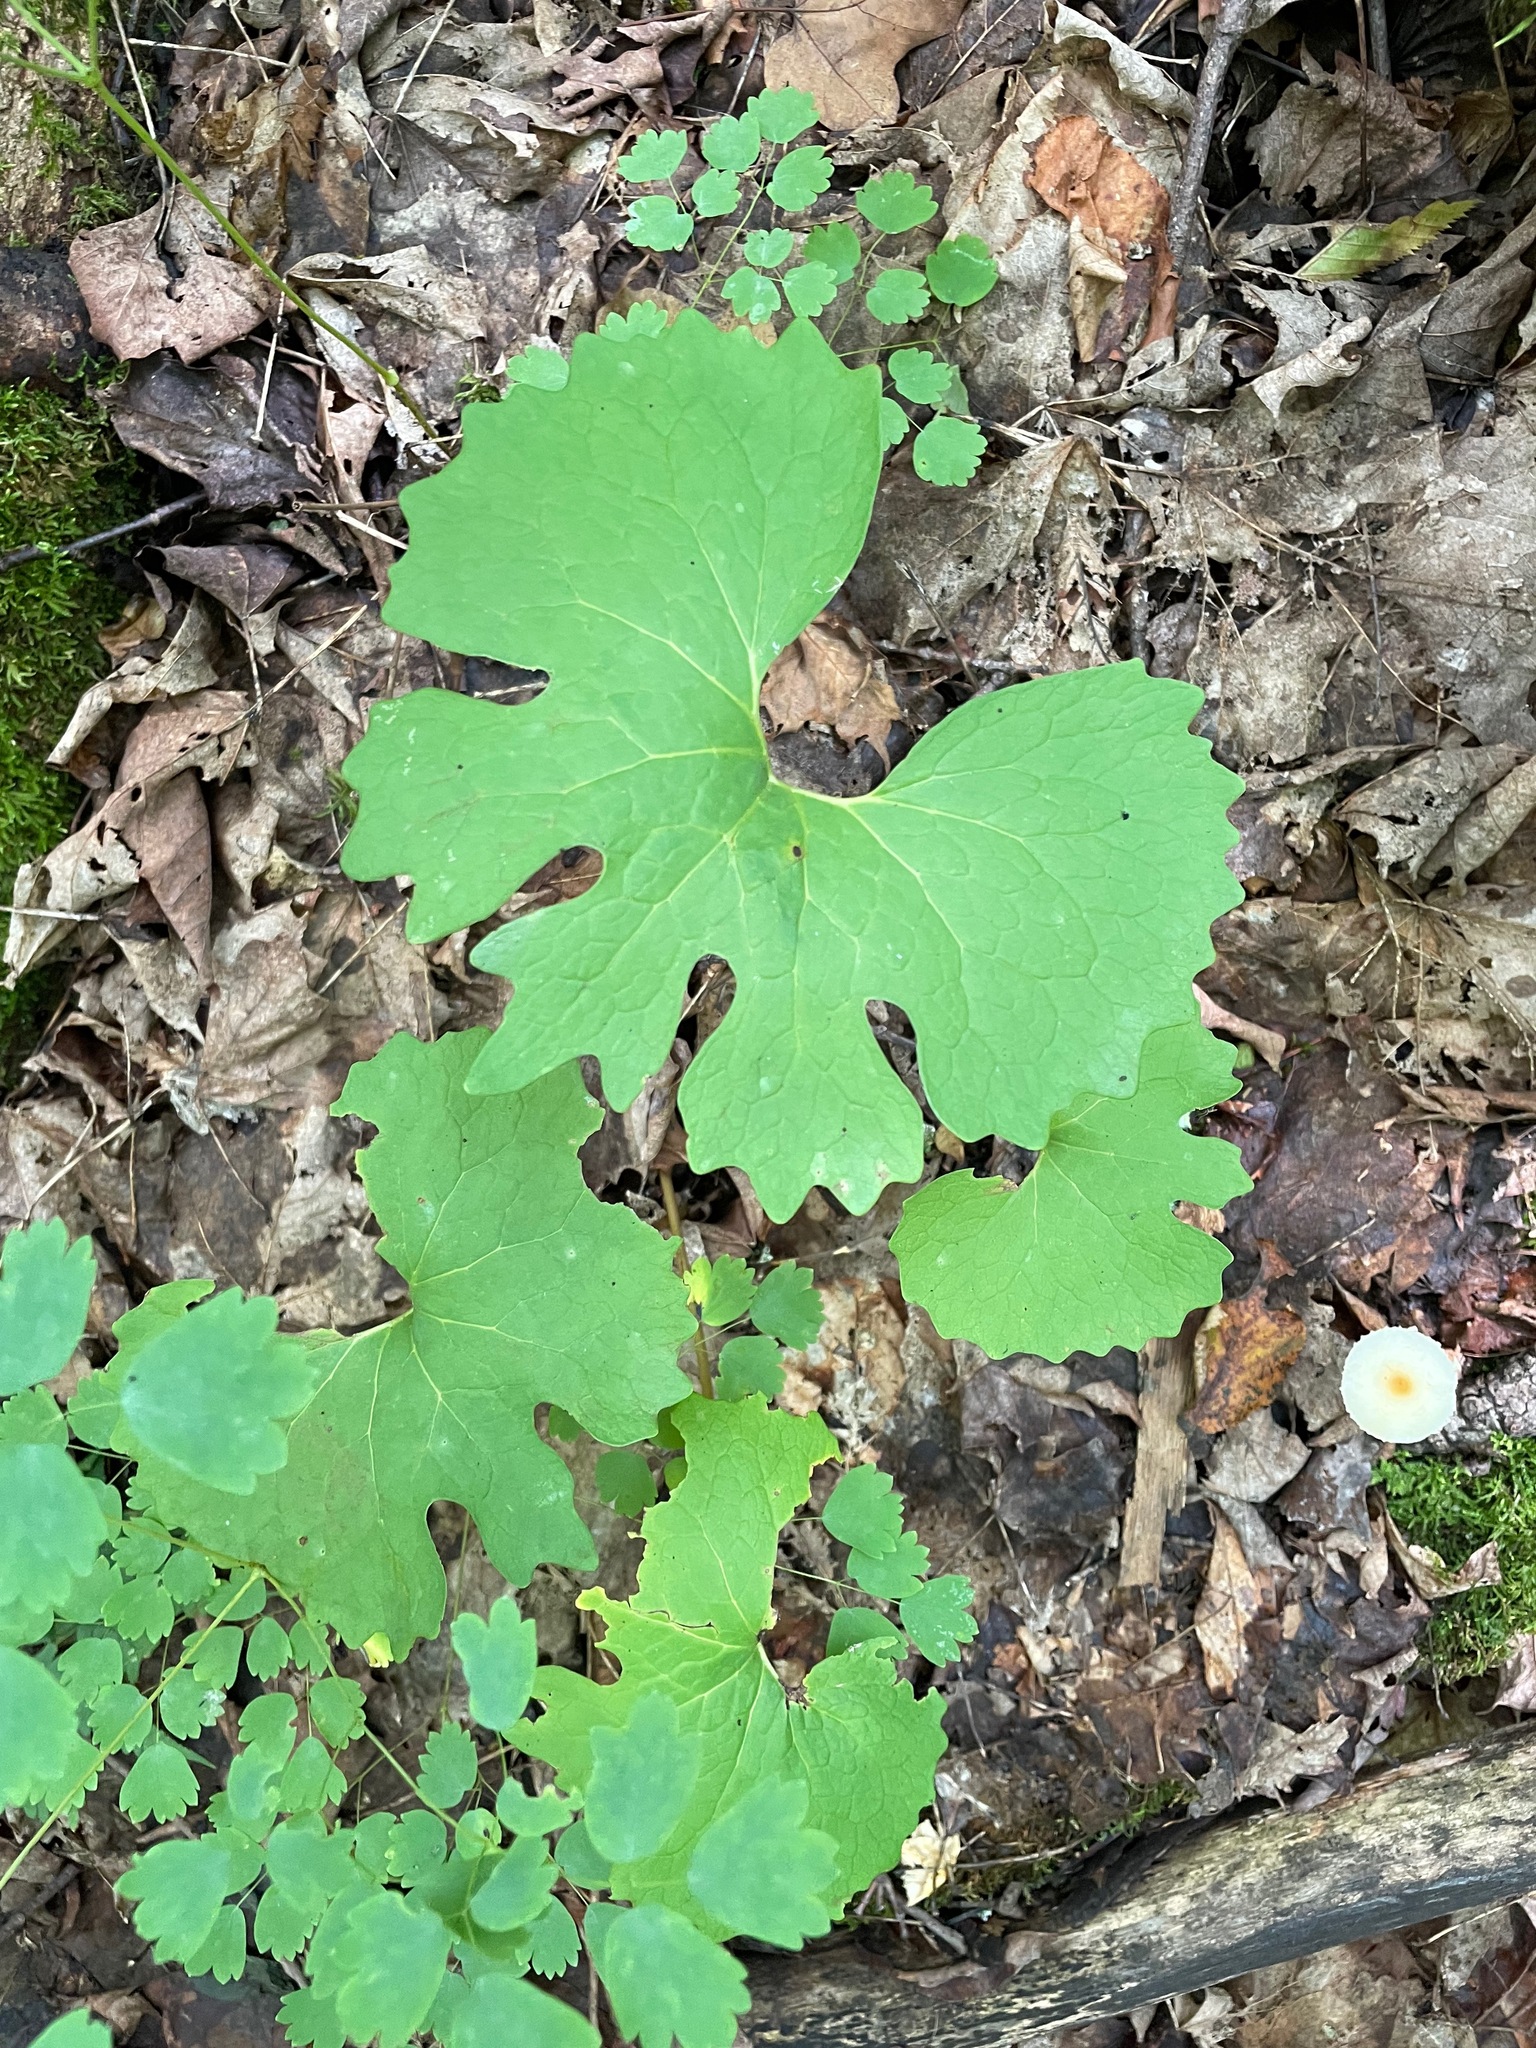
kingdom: Plantae
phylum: Tracheophyta
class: Magnoliopsida
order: Ranunculales
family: Papaveraceae
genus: Sanguinaria
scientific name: Sanguinaria canadensis
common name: Bloodroot
